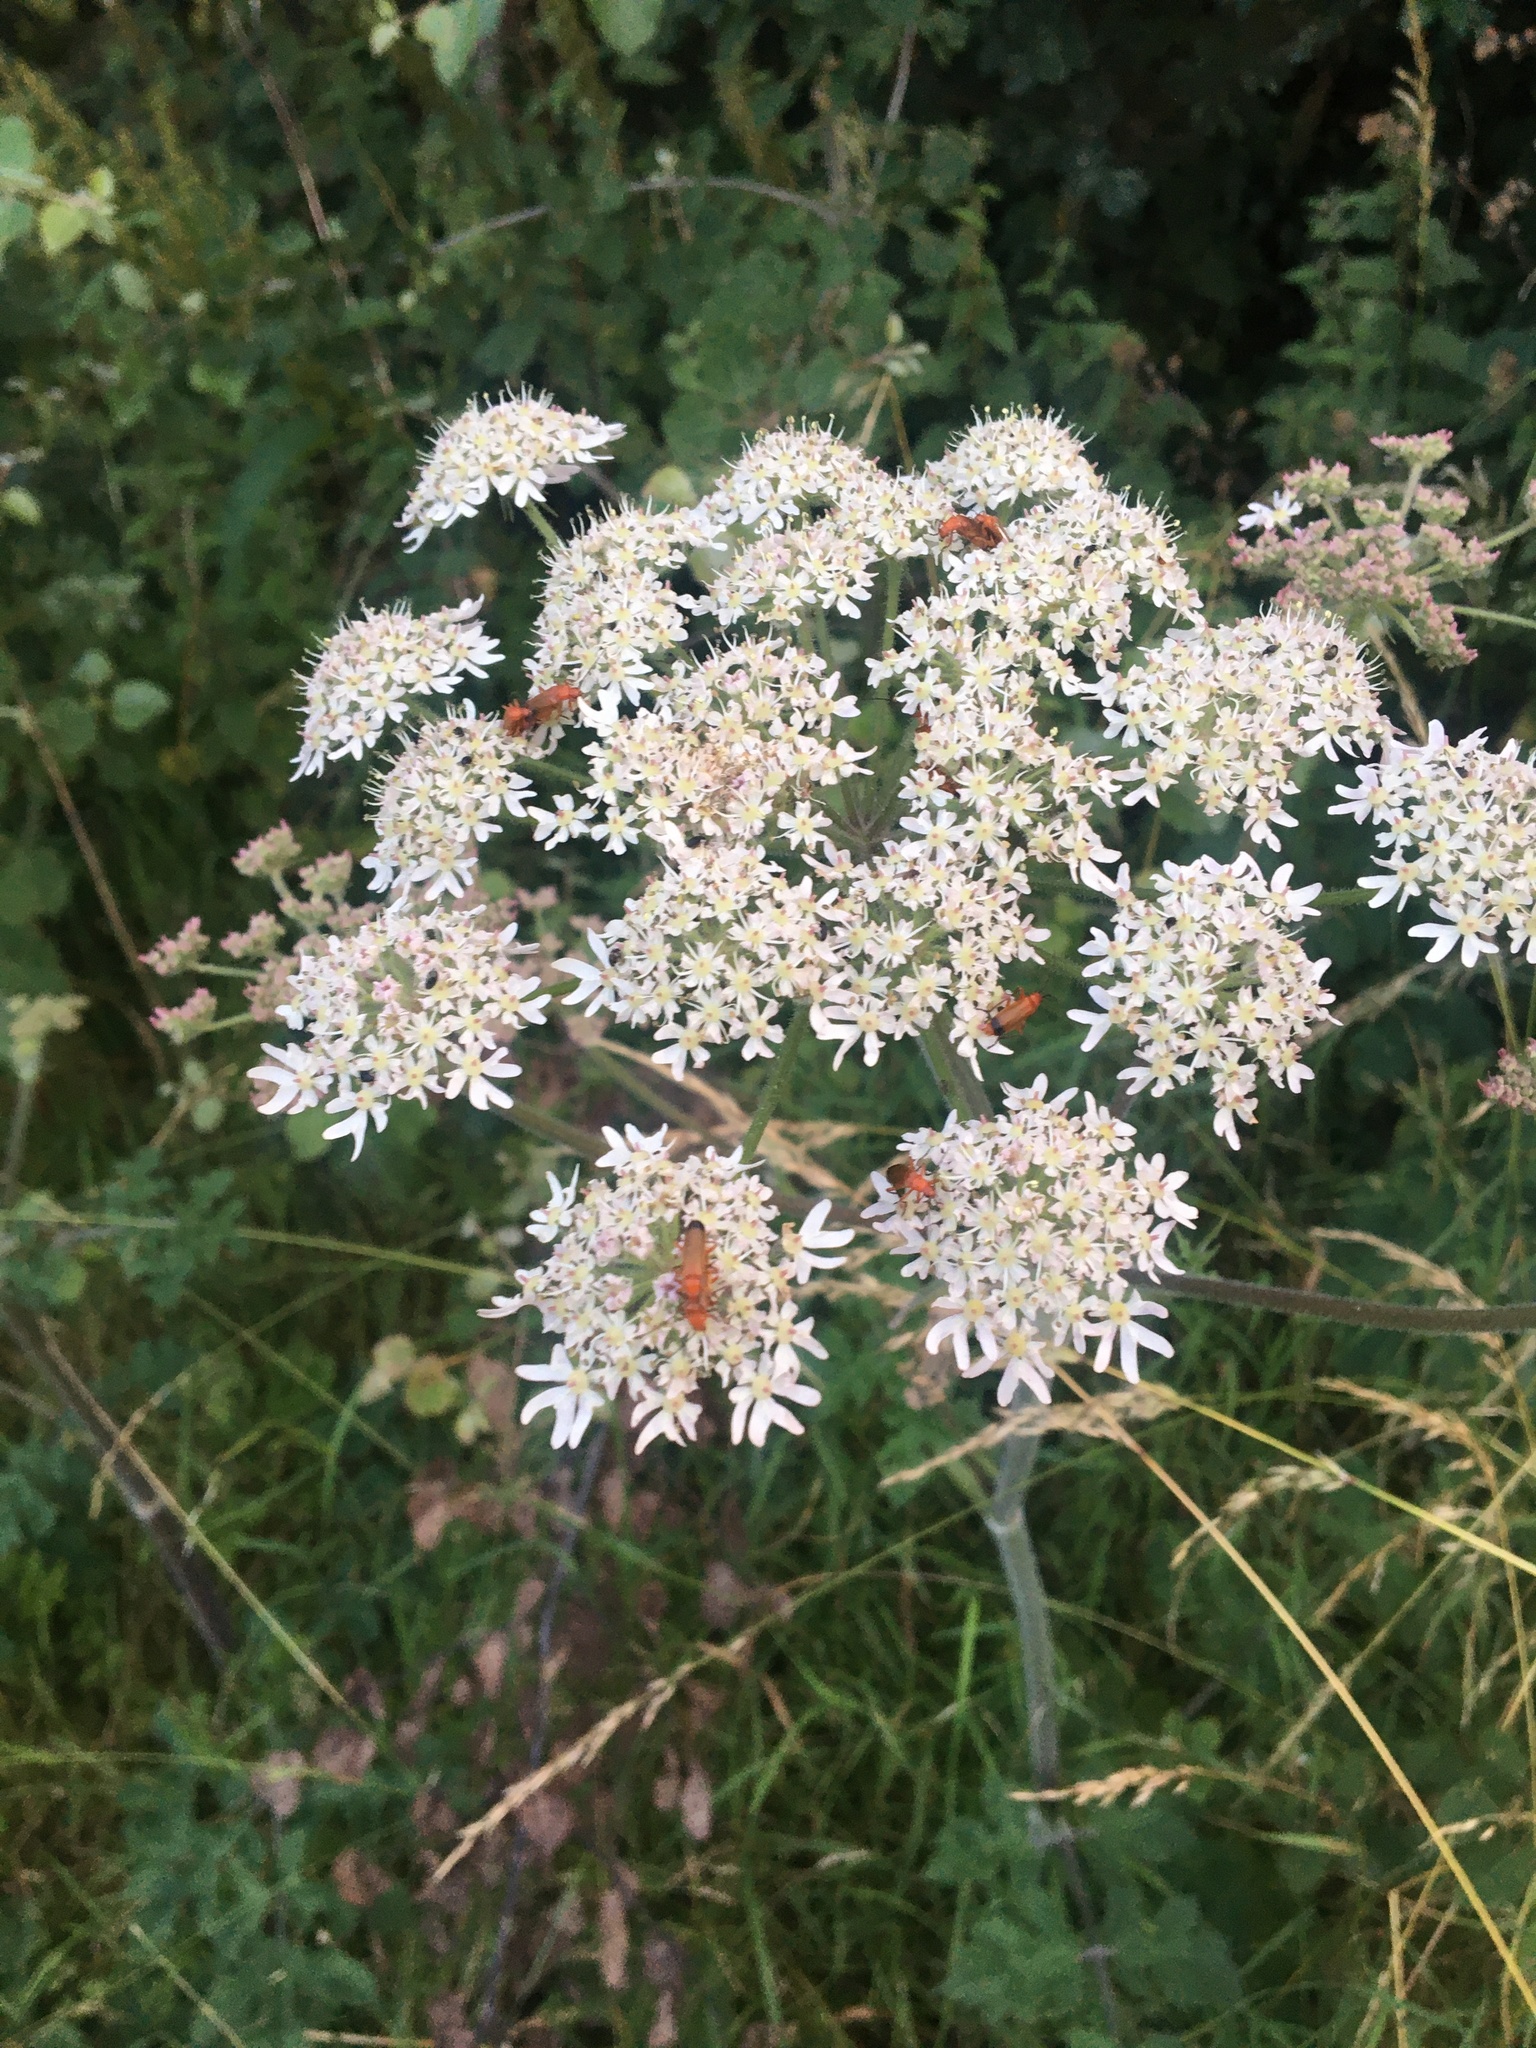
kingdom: Animalia
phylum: Arthropoda
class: Insecta
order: Coleoptera
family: Cantharidae
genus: Rhagonycha
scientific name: Rhagonycha fulva
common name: Common red soldier beetle
